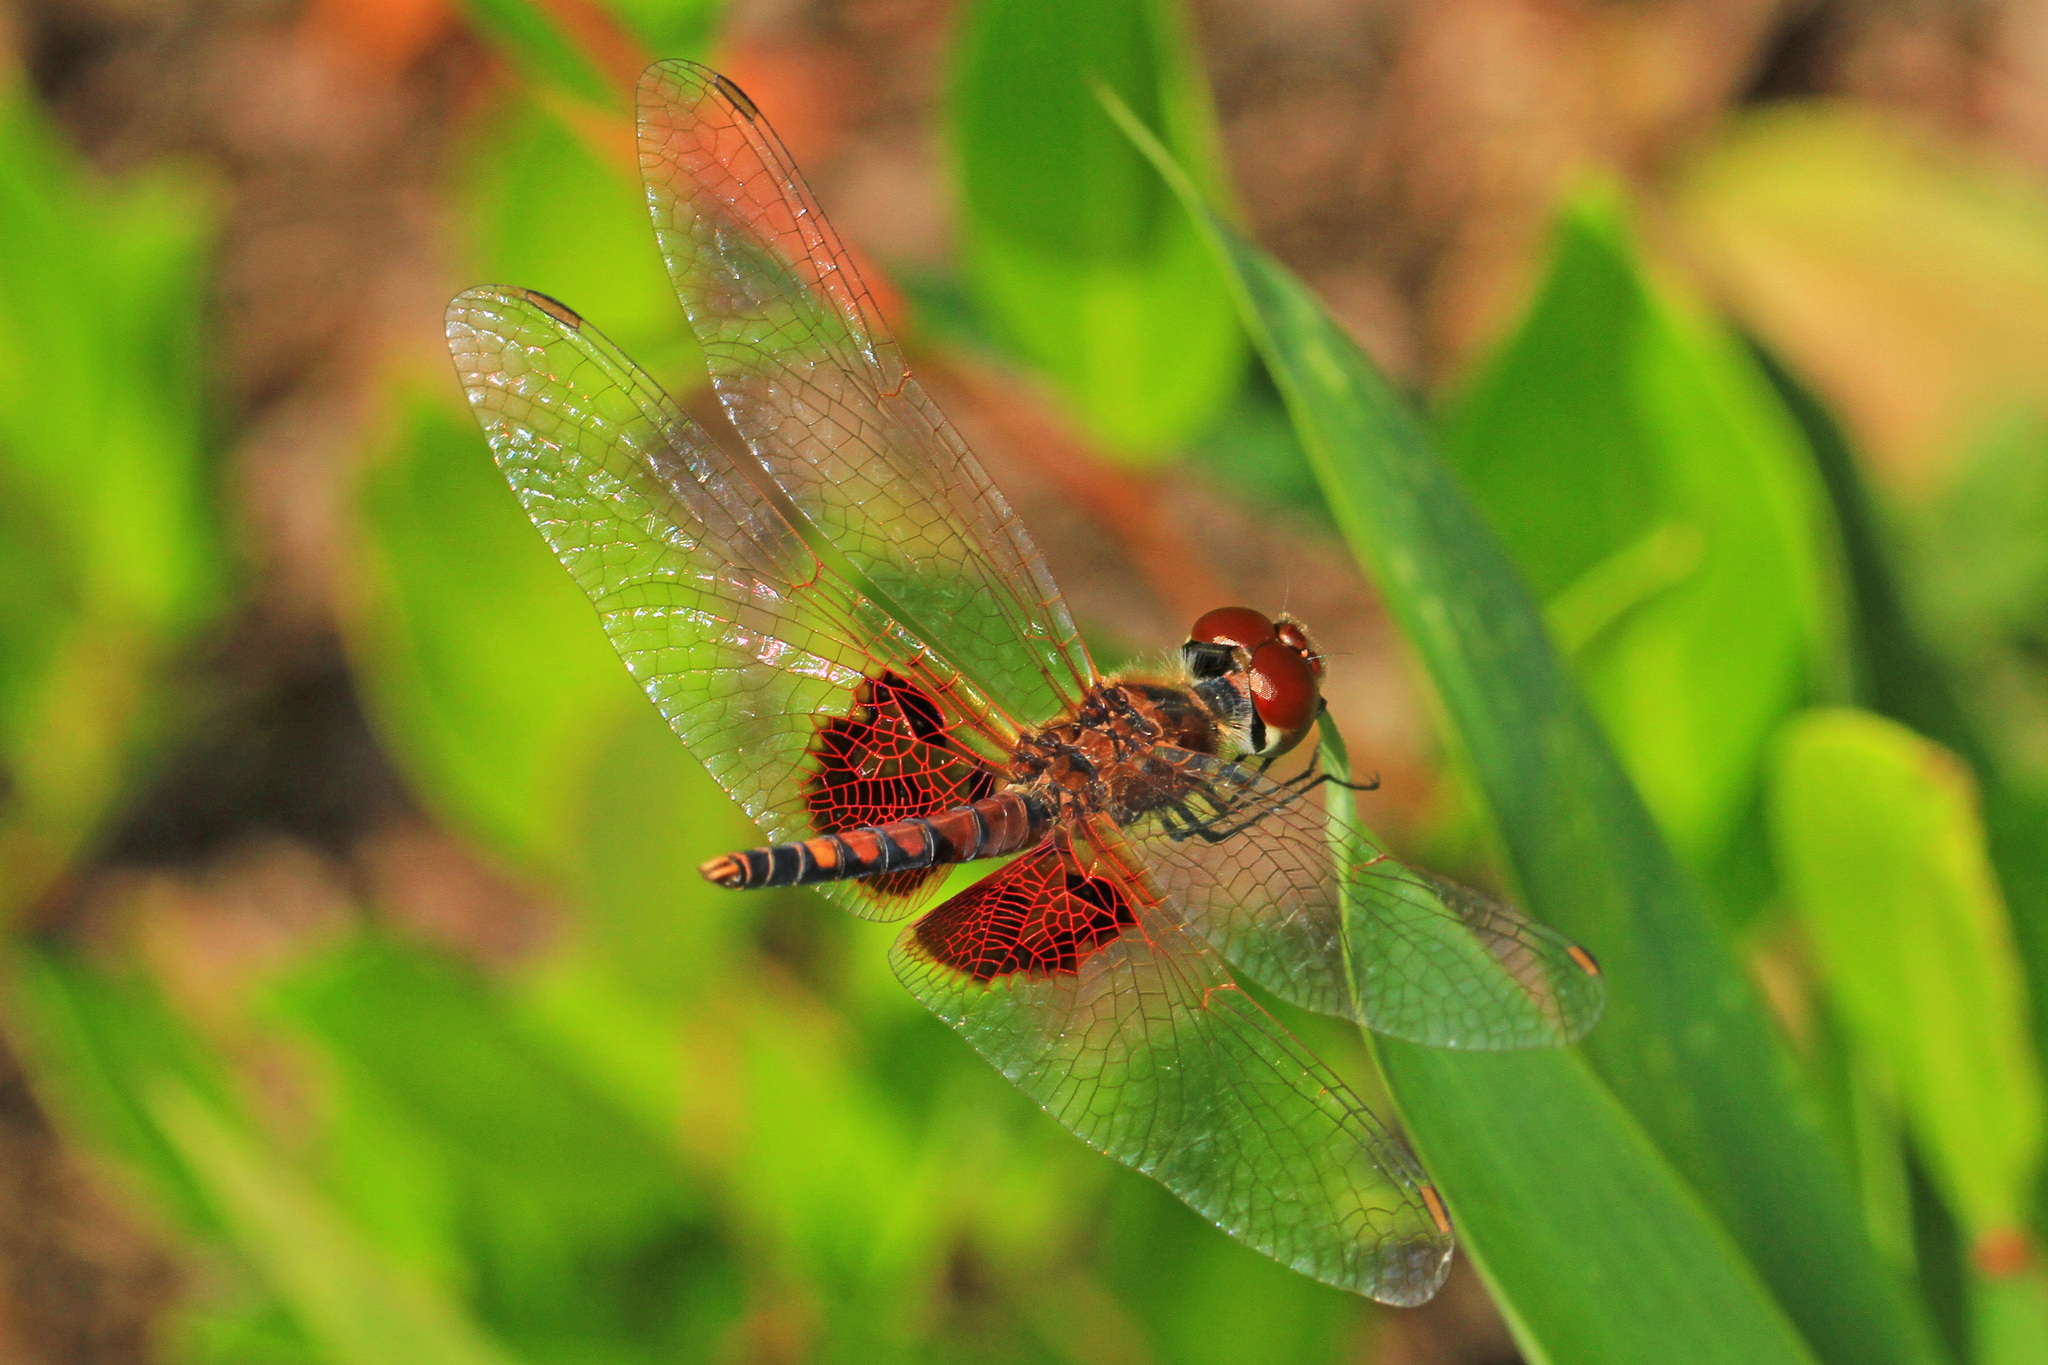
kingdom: Animalia
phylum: Arthropoda
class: Insecta
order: Odonata
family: Libellulidae
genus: Celithemis
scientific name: Celithemis amanda
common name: Amanda's pennant
